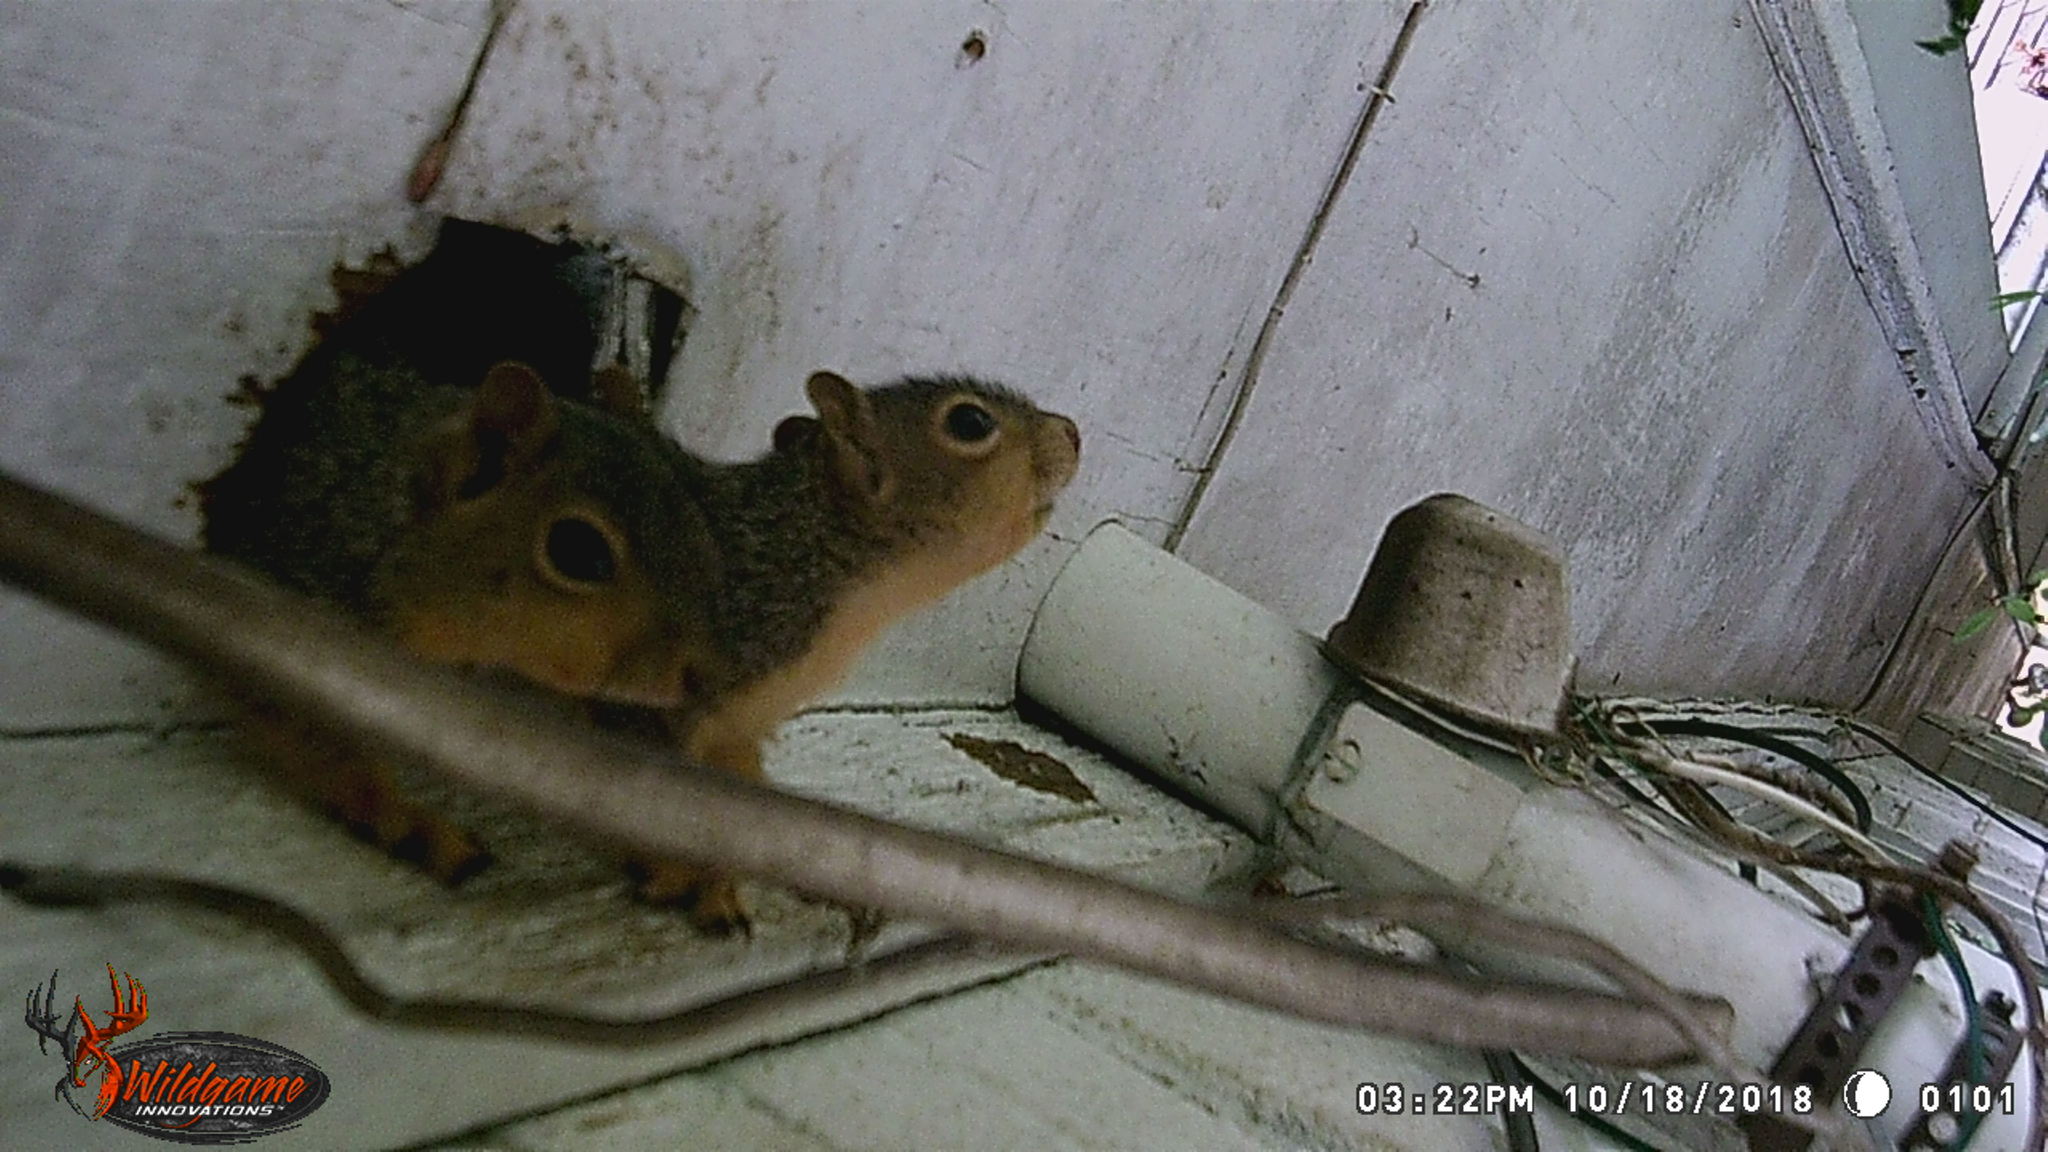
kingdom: Animalia
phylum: Chordata
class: Mammalia
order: Rodentia
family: Sciuridae
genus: Sciurus
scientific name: Sciurus niger
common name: Fox squirrel
